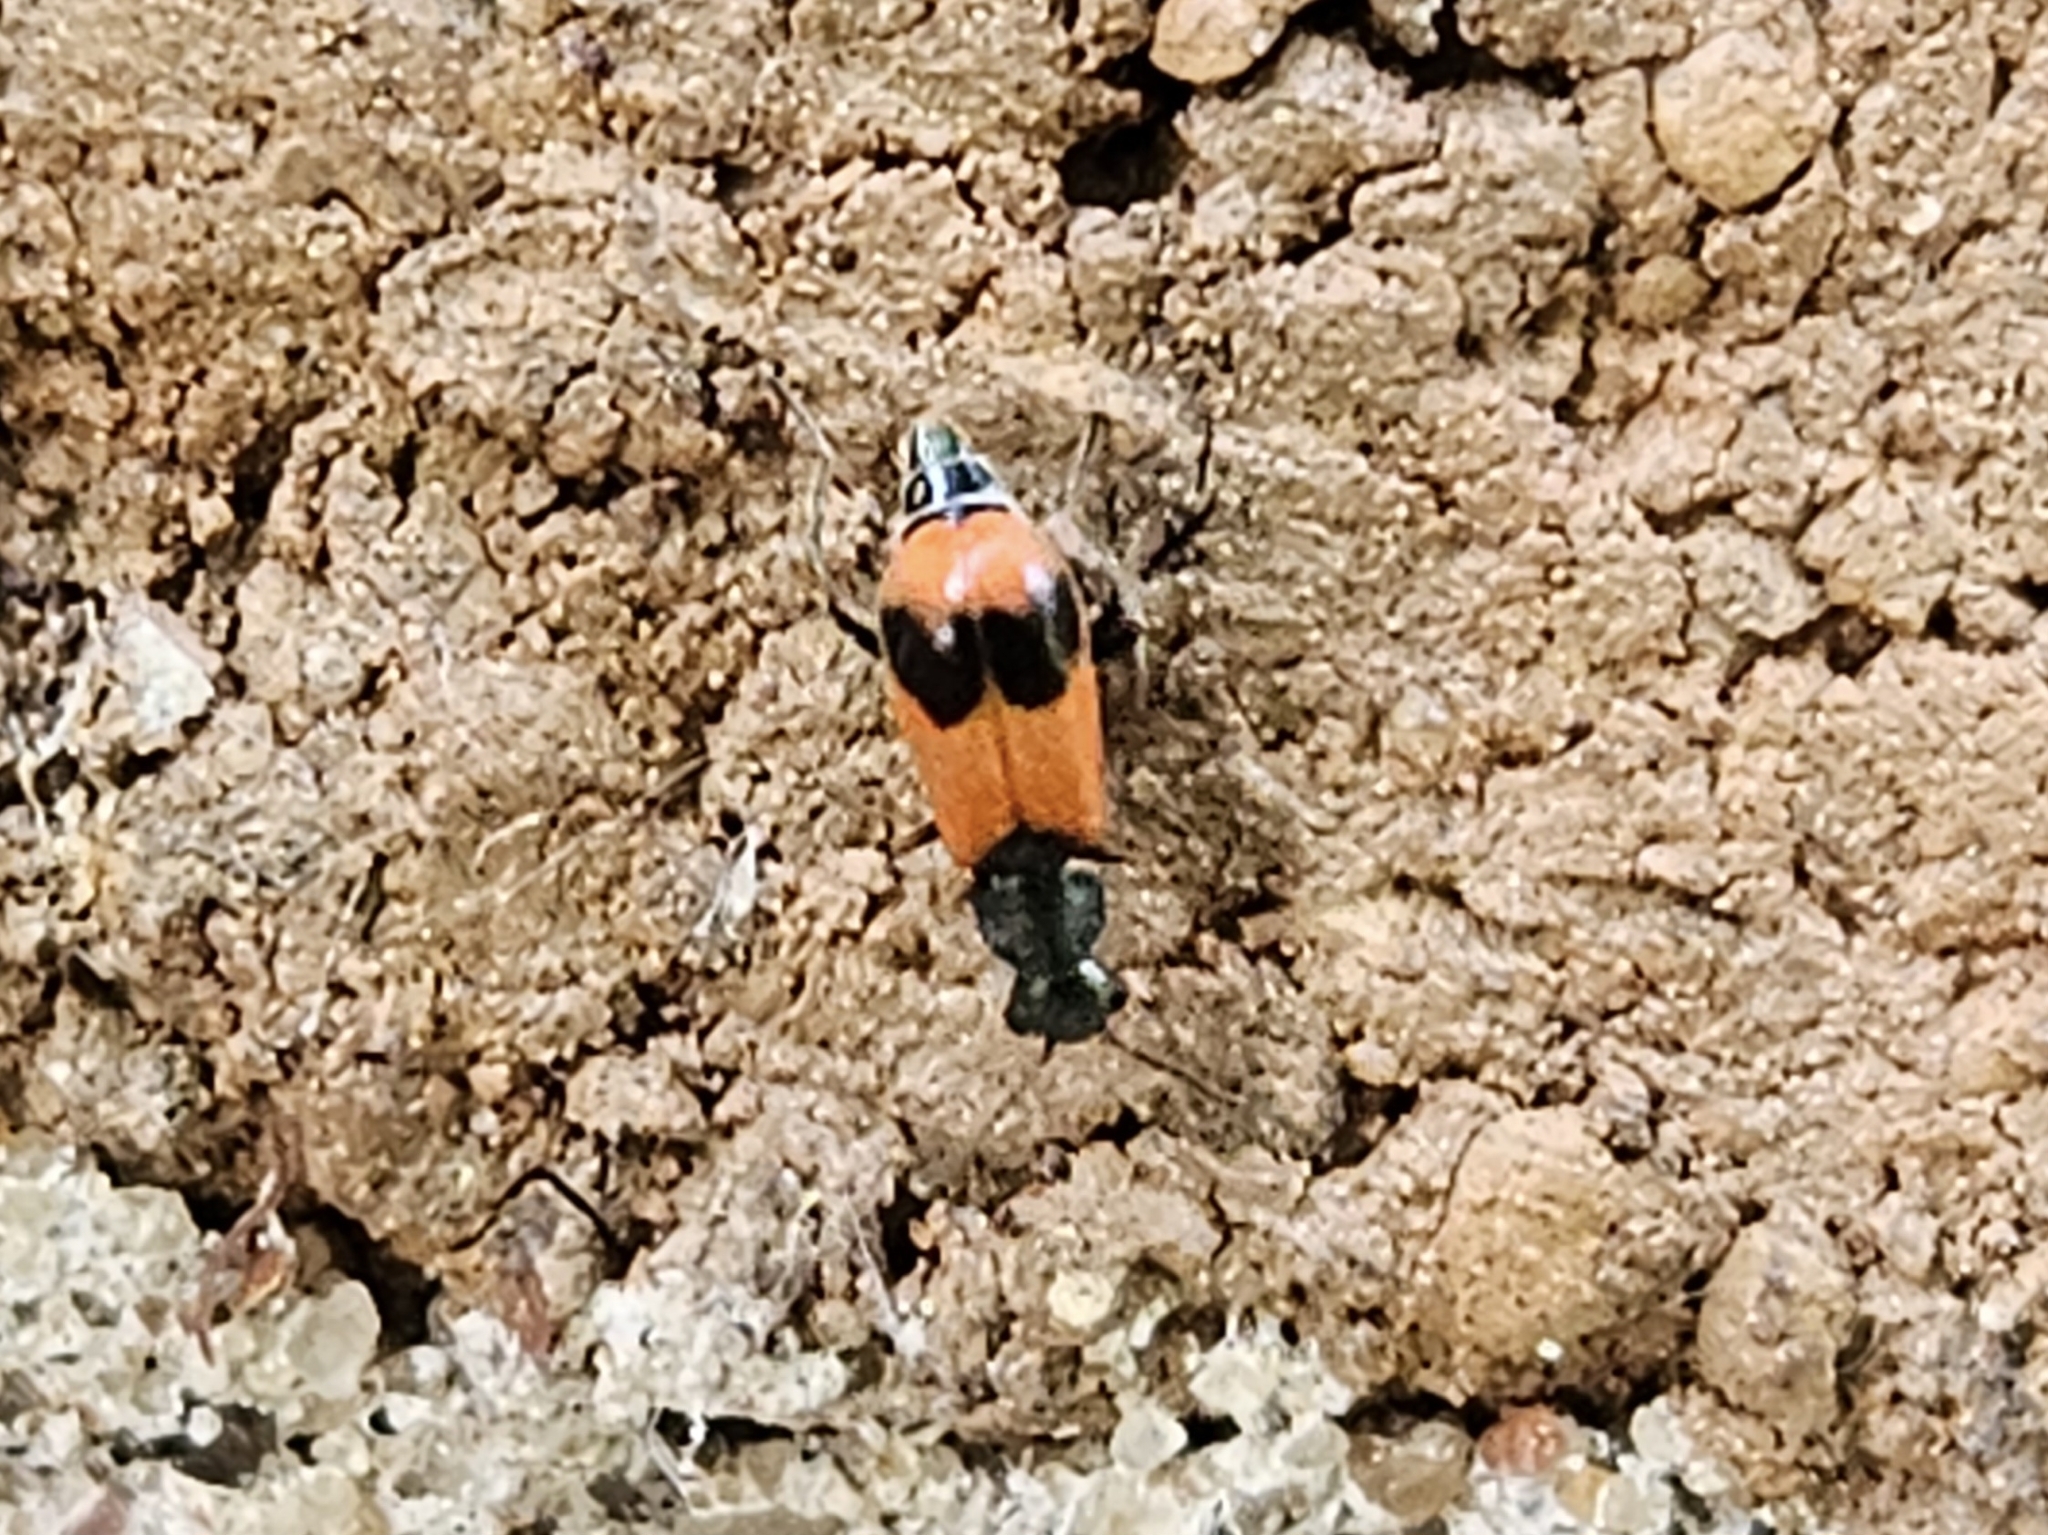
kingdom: Animalia
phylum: Arthropoda
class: Insecta
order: Coleoptera
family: Melyridae
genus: Anthocomus
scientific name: Anthocomus equestris
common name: Black-banded soft-winged flower beetle
